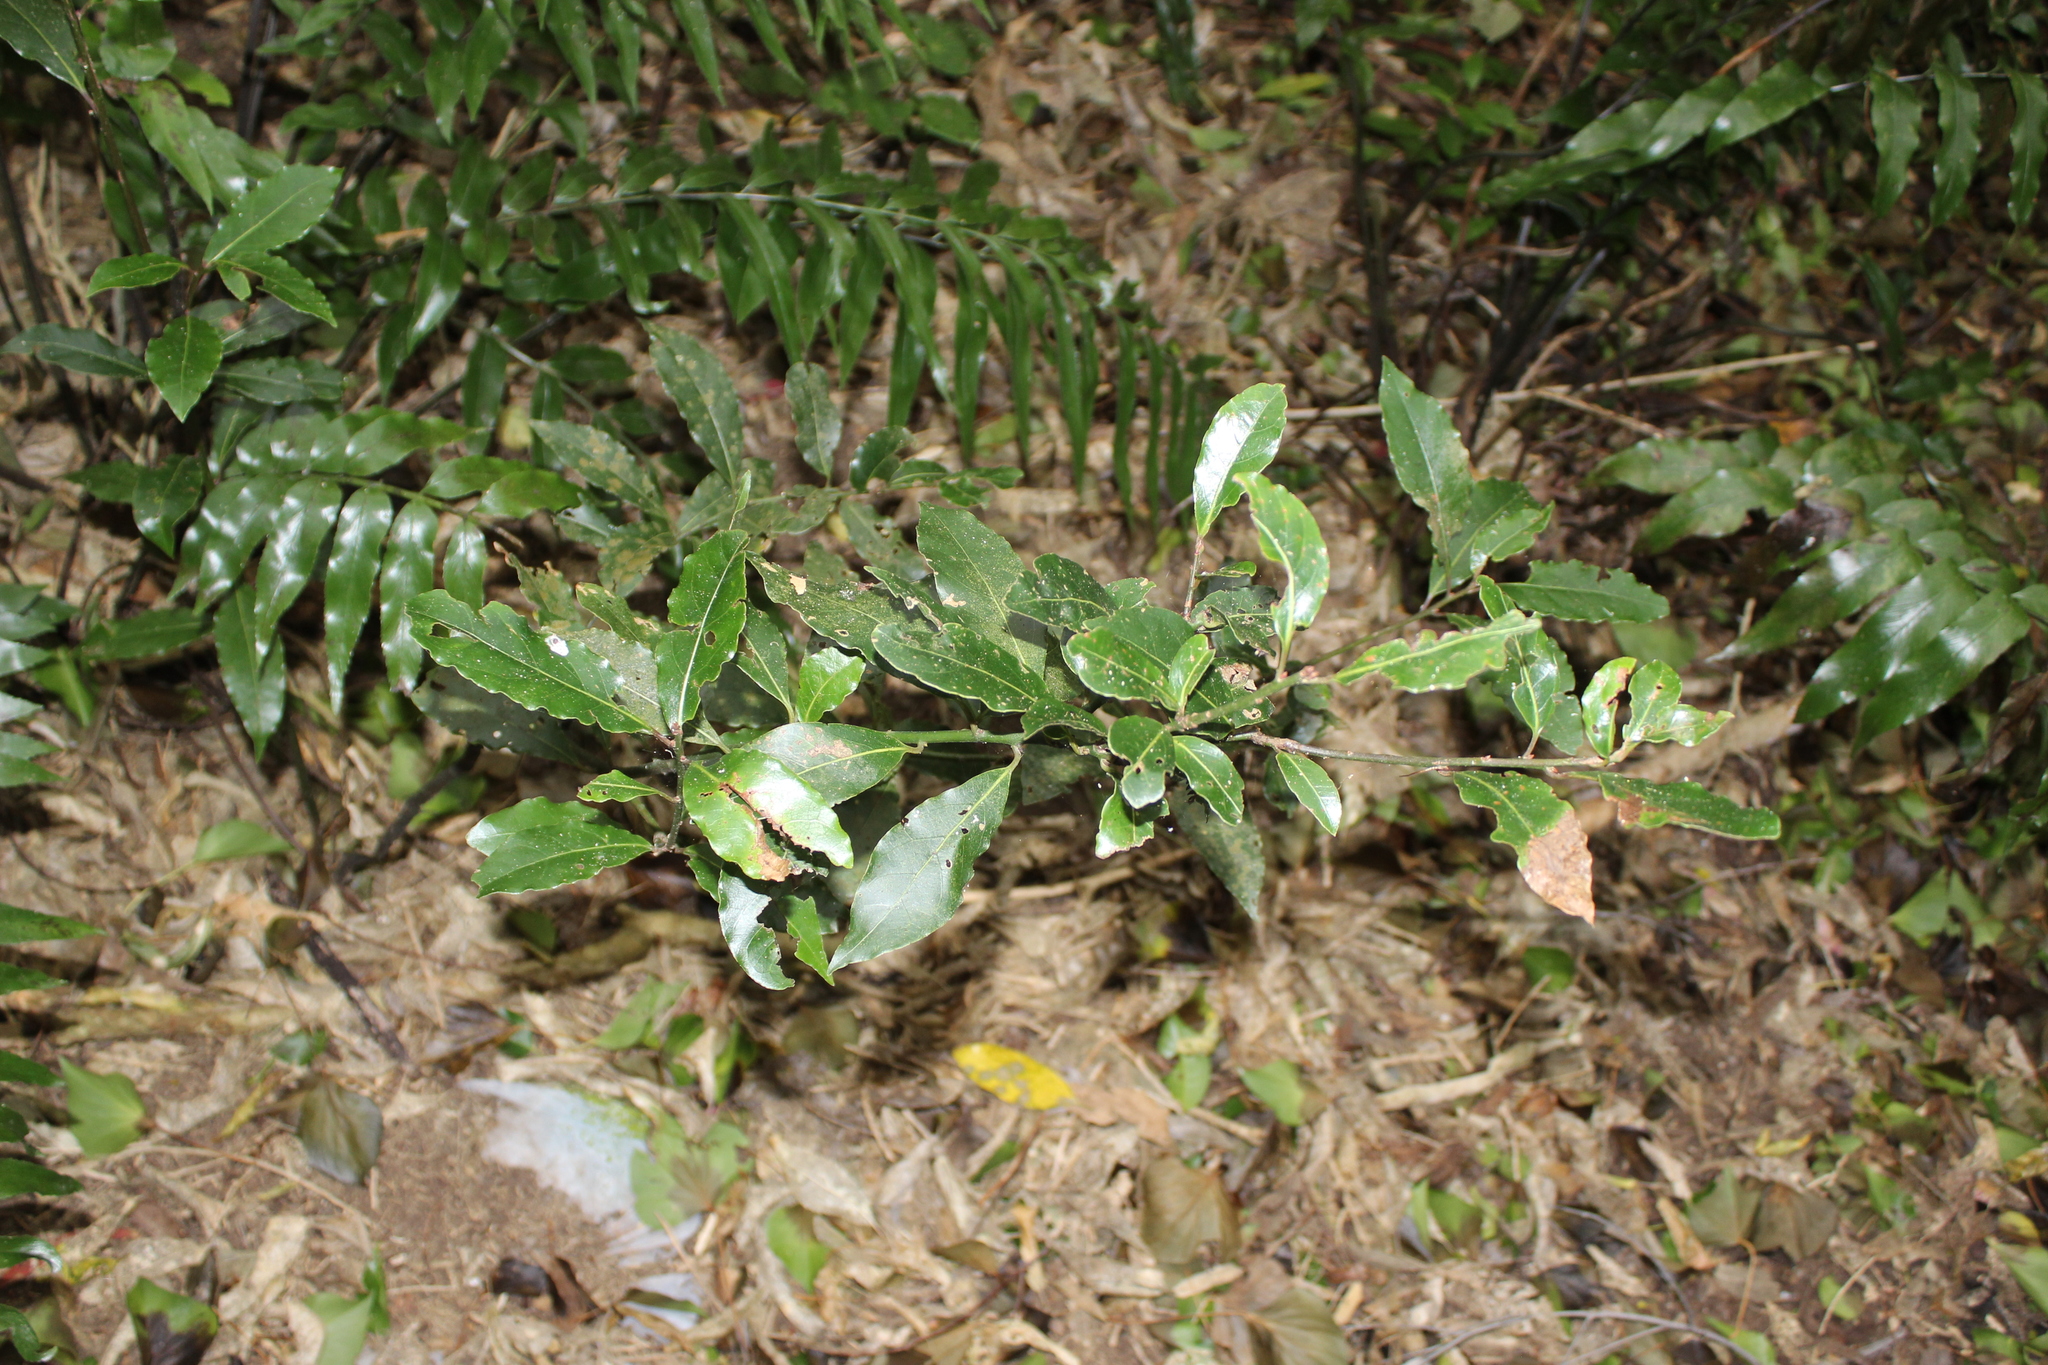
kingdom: Plantae
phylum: Tracheophyta
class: Magnoliopsida
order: Laurales
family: Lauraceae
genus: Laurus
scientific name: Laurus nobilis
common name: Bay
